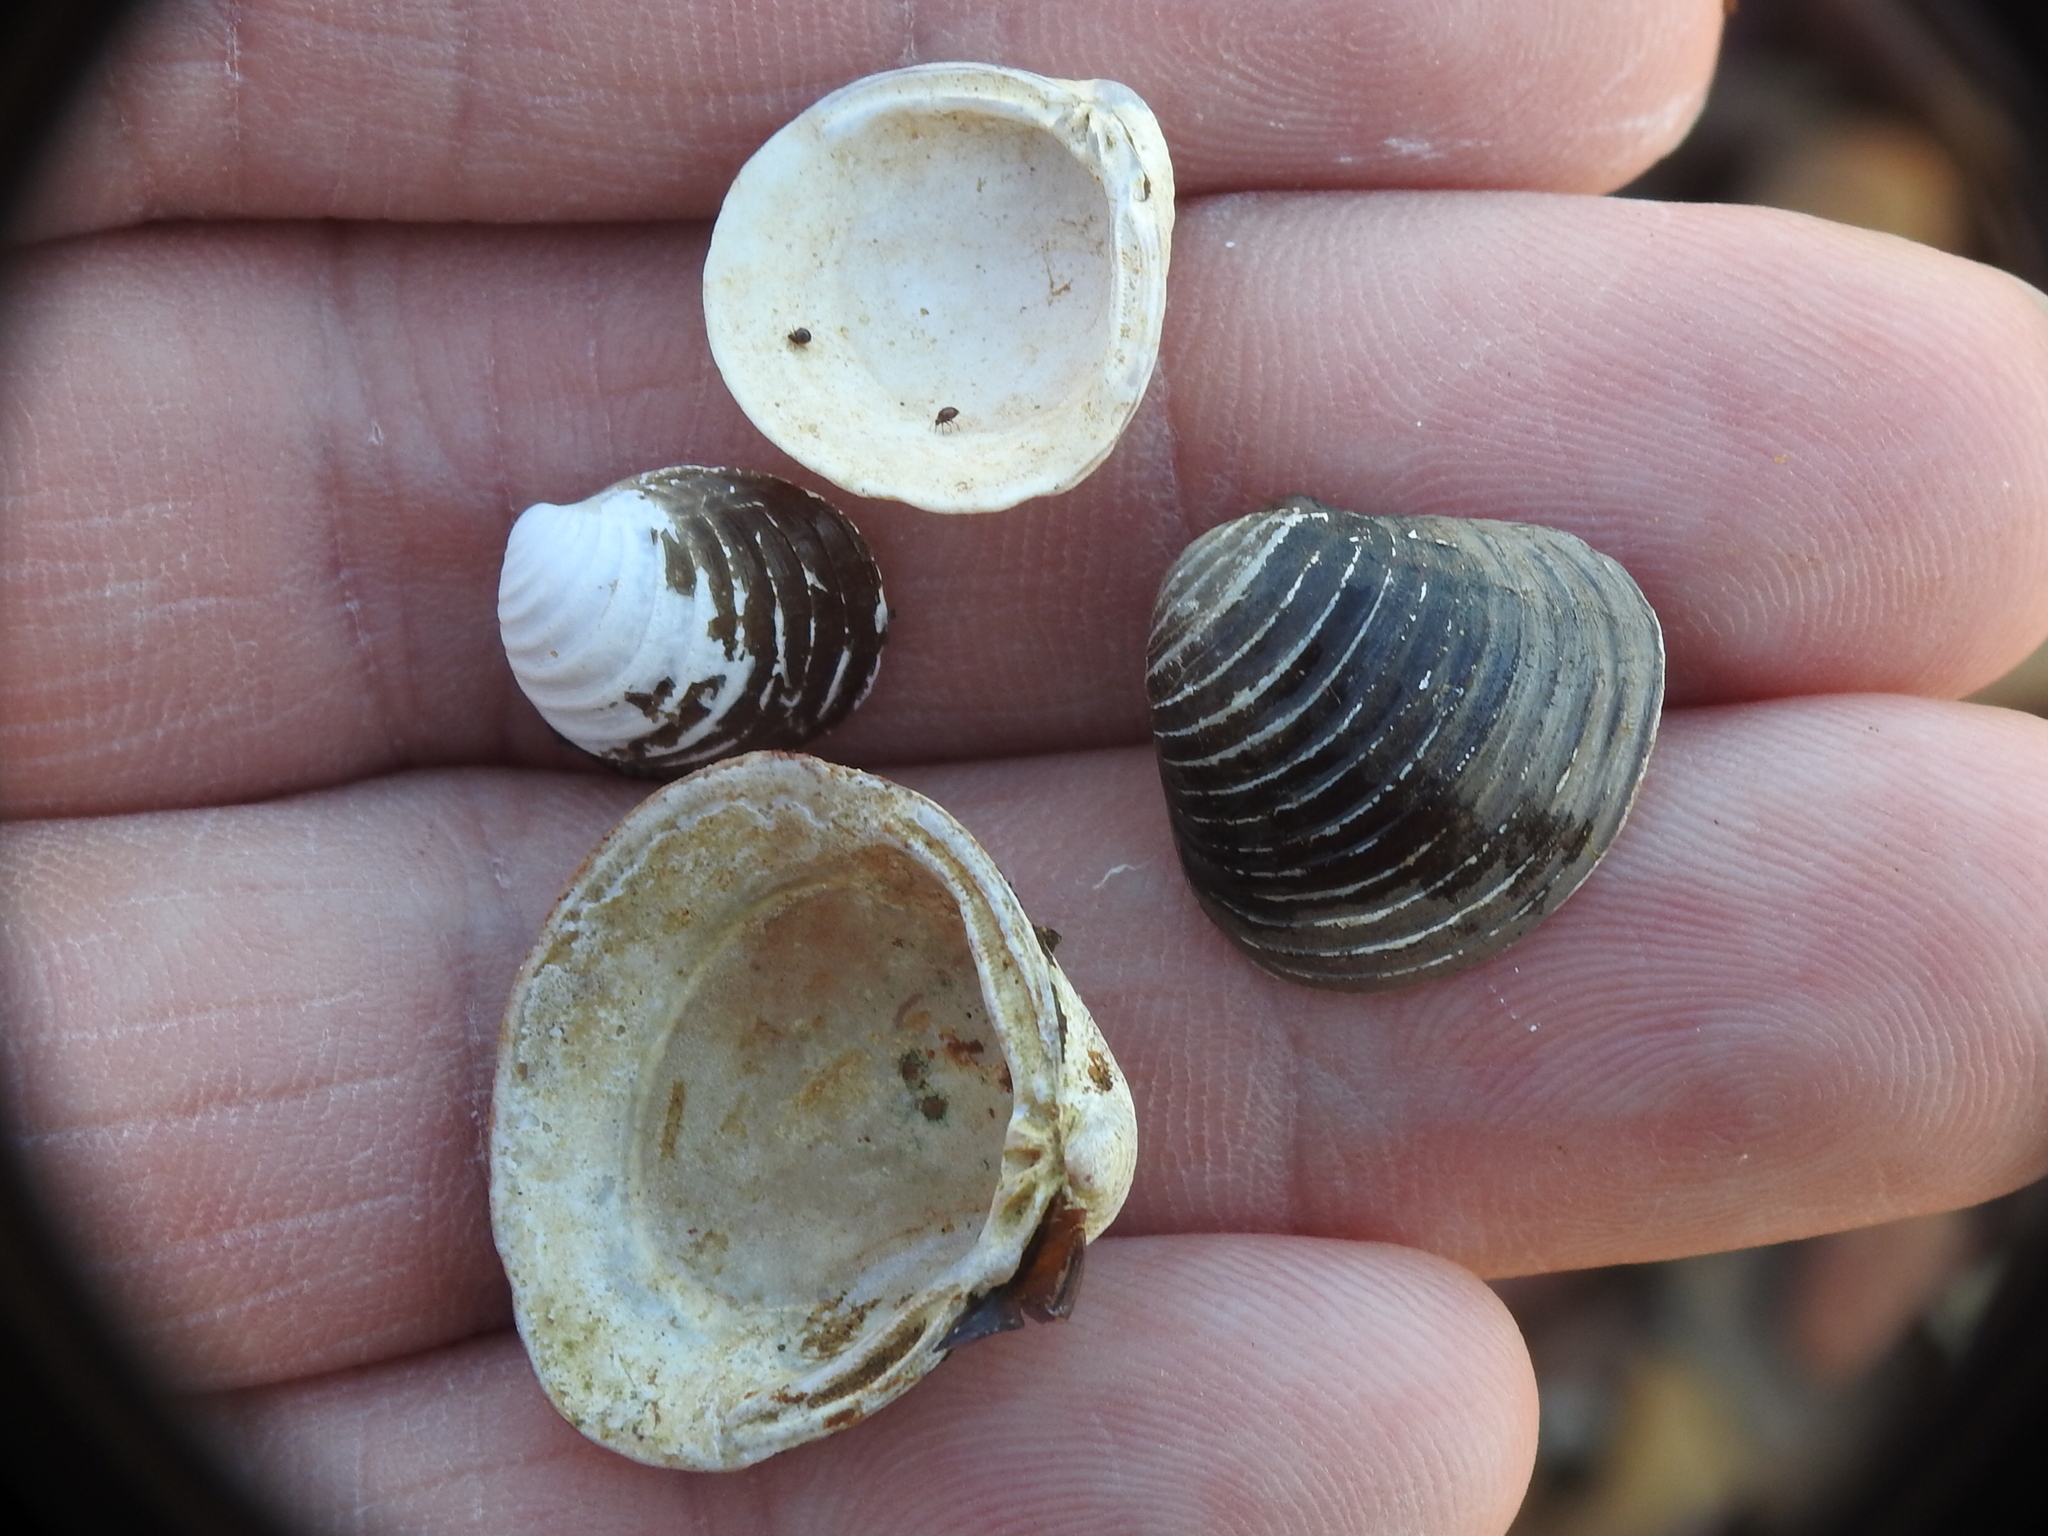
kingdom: Animalia
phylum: Mollusca
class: Bivalvia
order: Venerida
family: Cyrenidae
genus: Corbicula
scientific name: Corbicula fluminea
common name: Asian clam
